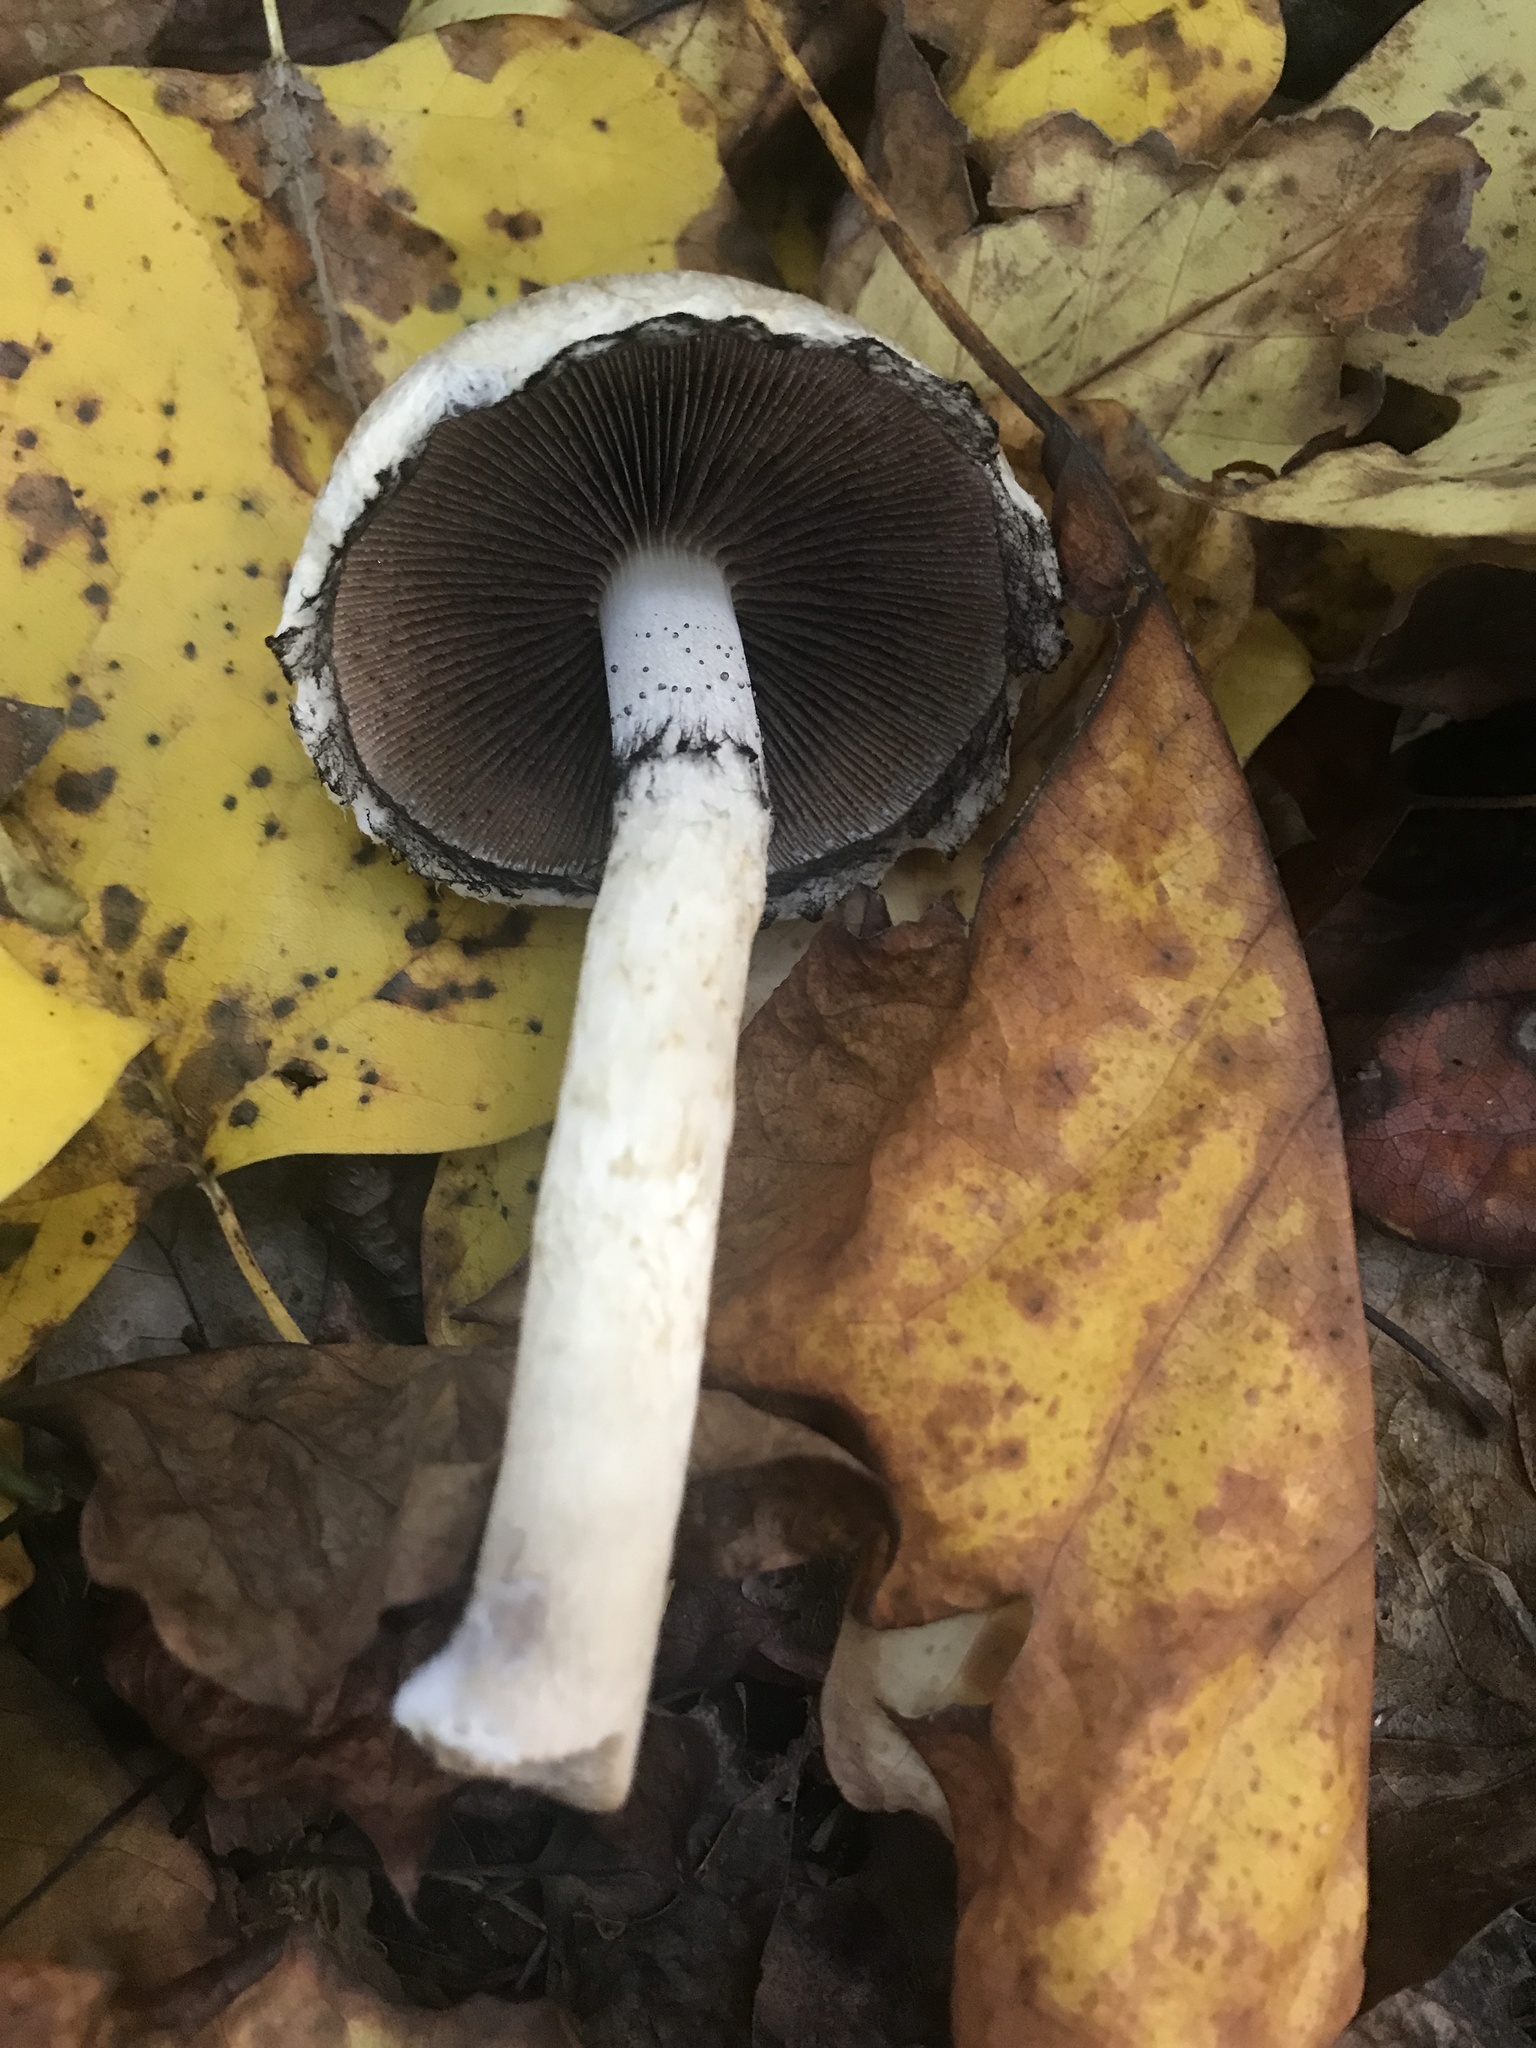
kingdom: Fungi
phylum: Basidiomycota
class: Agaricomycetes
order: Agaricales
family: Psathyrellaceae
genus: Lacrymaria
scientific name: Lacrymaria lacrymabunda
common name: Weeping widow
